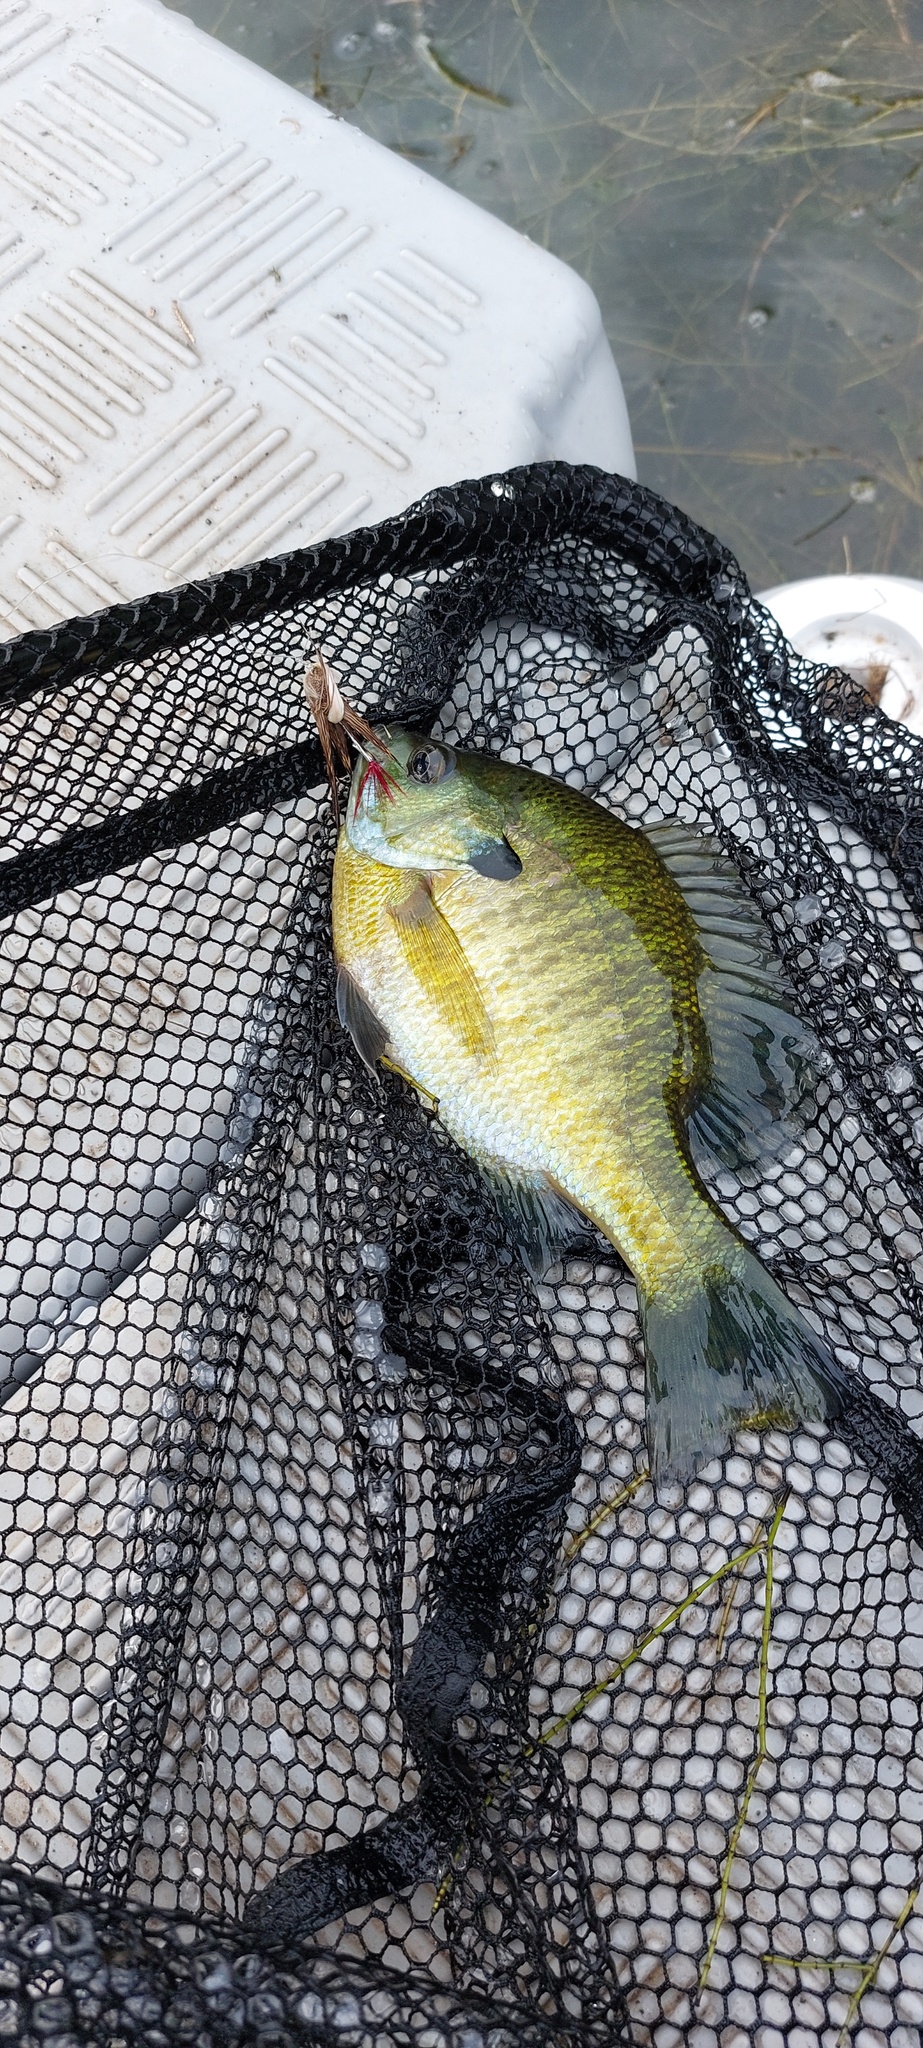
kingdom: Animalia
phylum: Chordata
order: Perciformes
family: Centrarchidae
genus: Lepomis
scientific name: Lepomis macrochirus
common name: Bluegill
